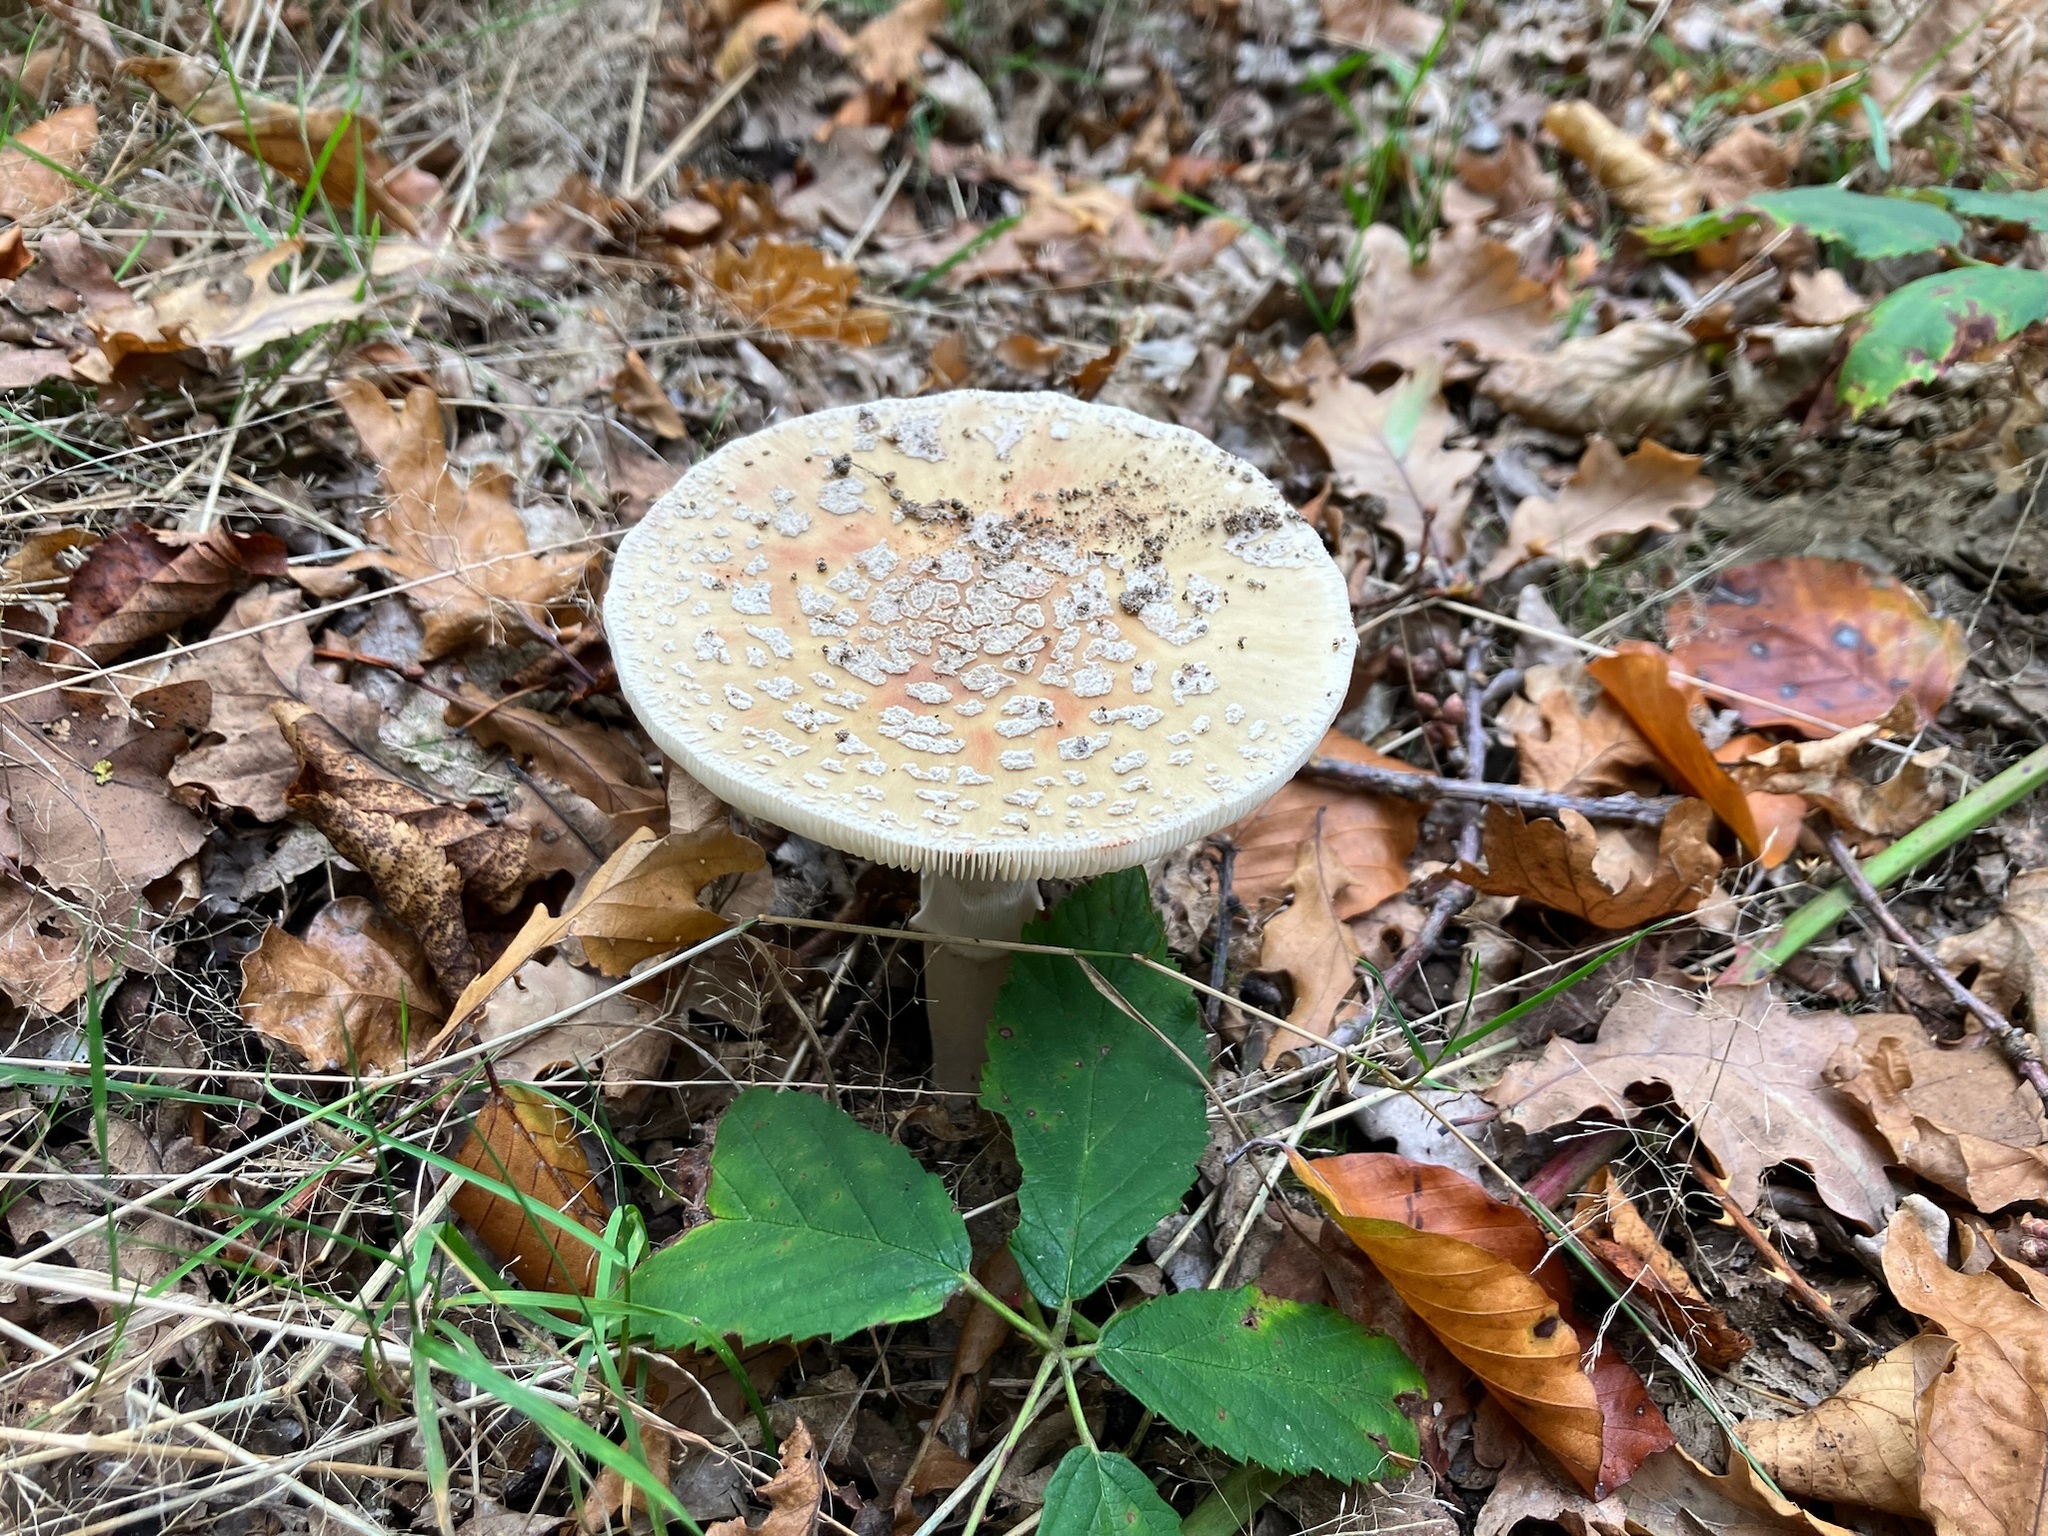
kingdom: Fungi
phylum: Basidiomycota
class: Agaricomycetes
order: Agaricales
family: Amanitaceae
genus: Amanita
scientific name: Amanita rubescens
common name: Blusher
